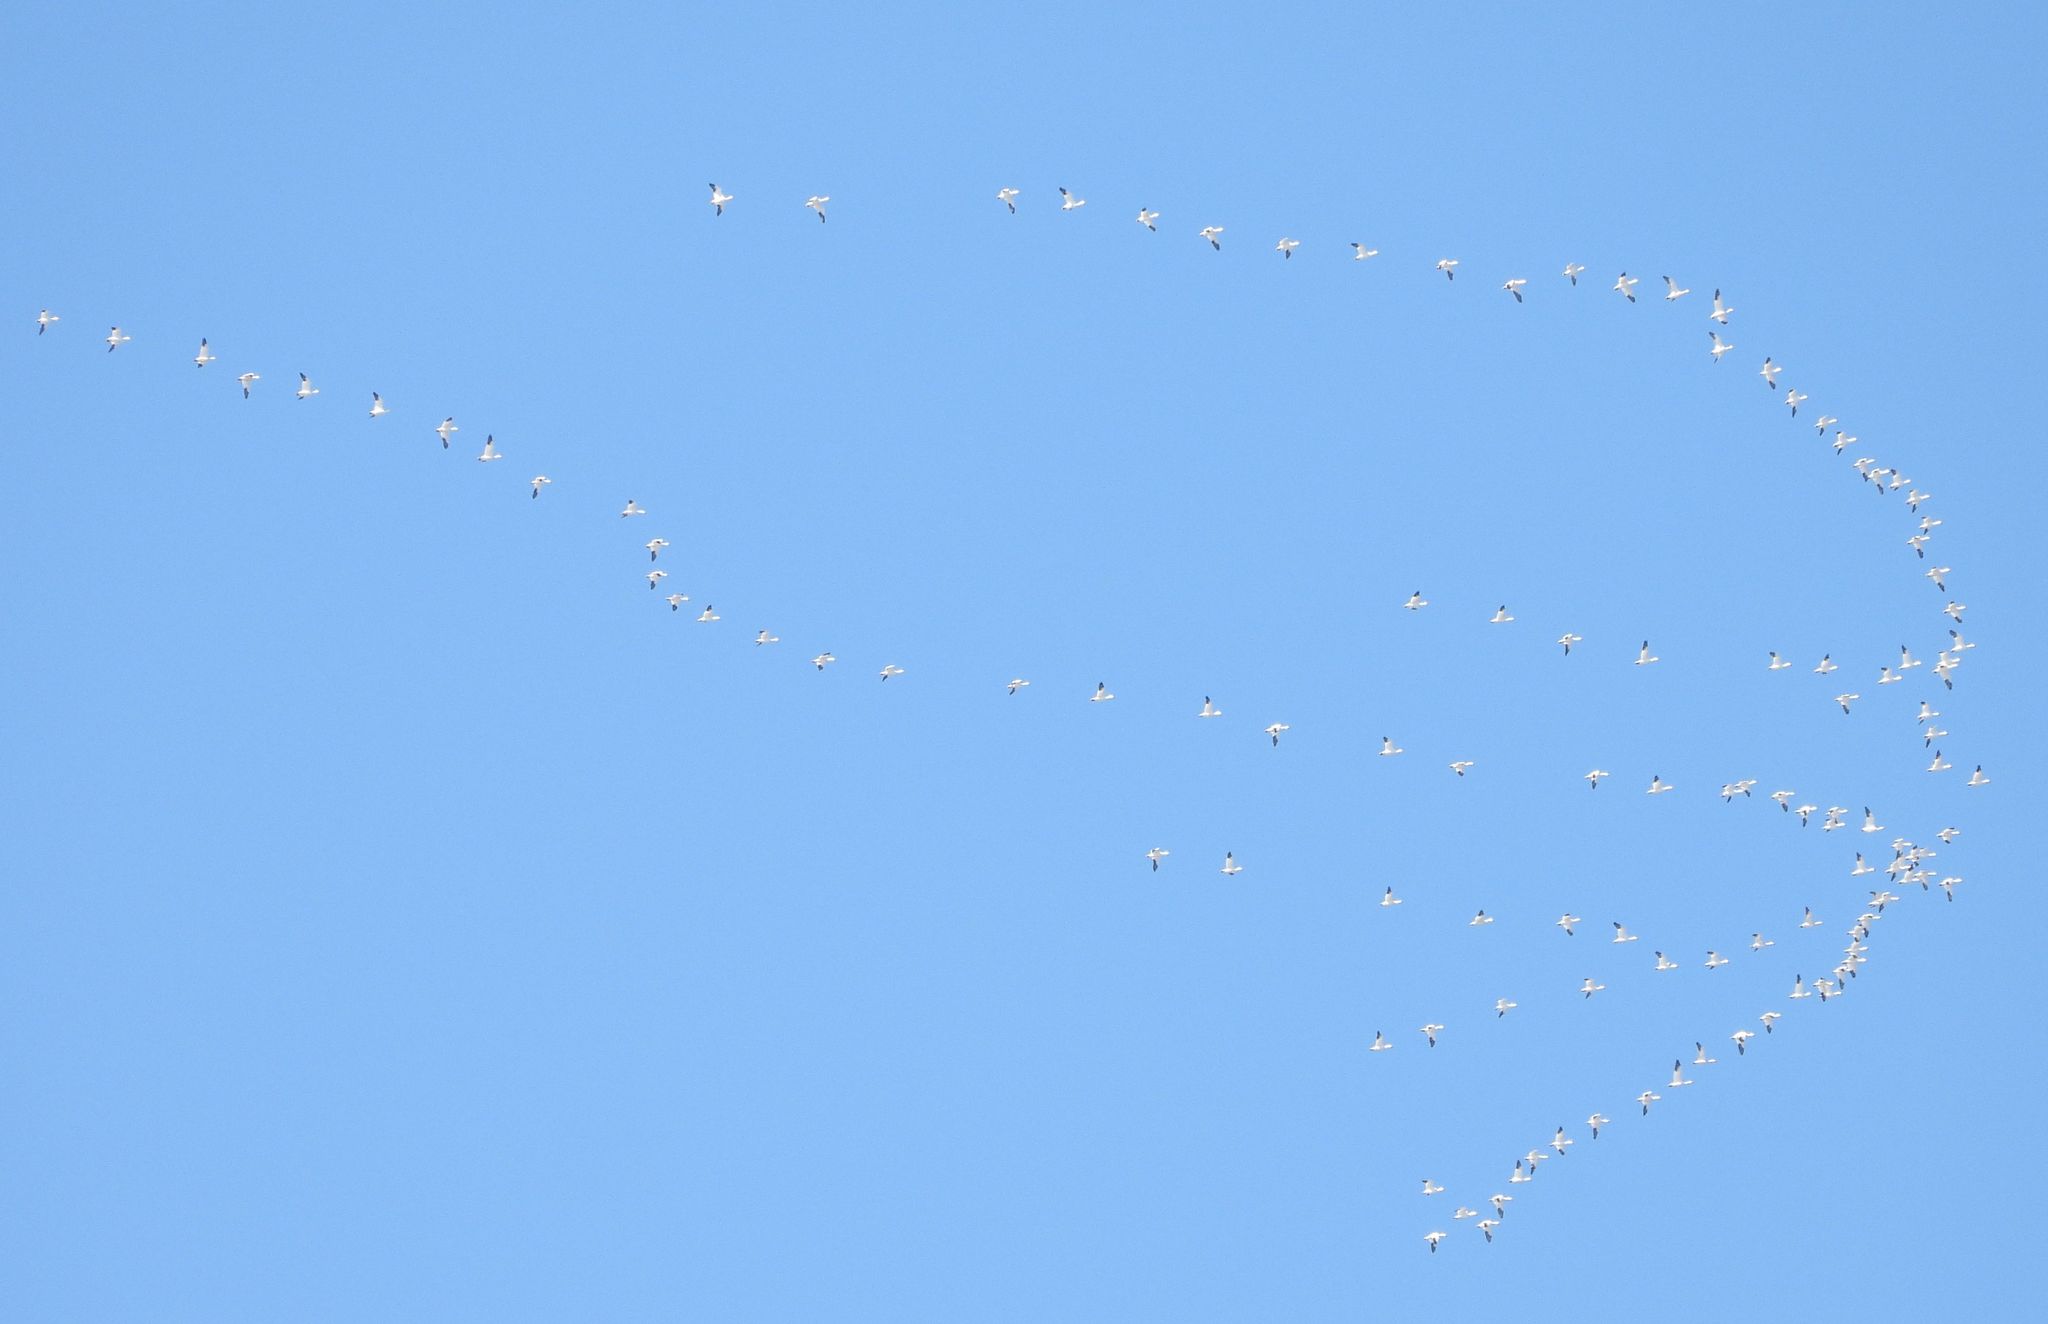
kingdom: Animalia
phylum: Chordata
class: Aves
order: Anseriformes
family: Anatidae
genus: Anser
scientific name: Anser caerulescens
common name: Snow goose
